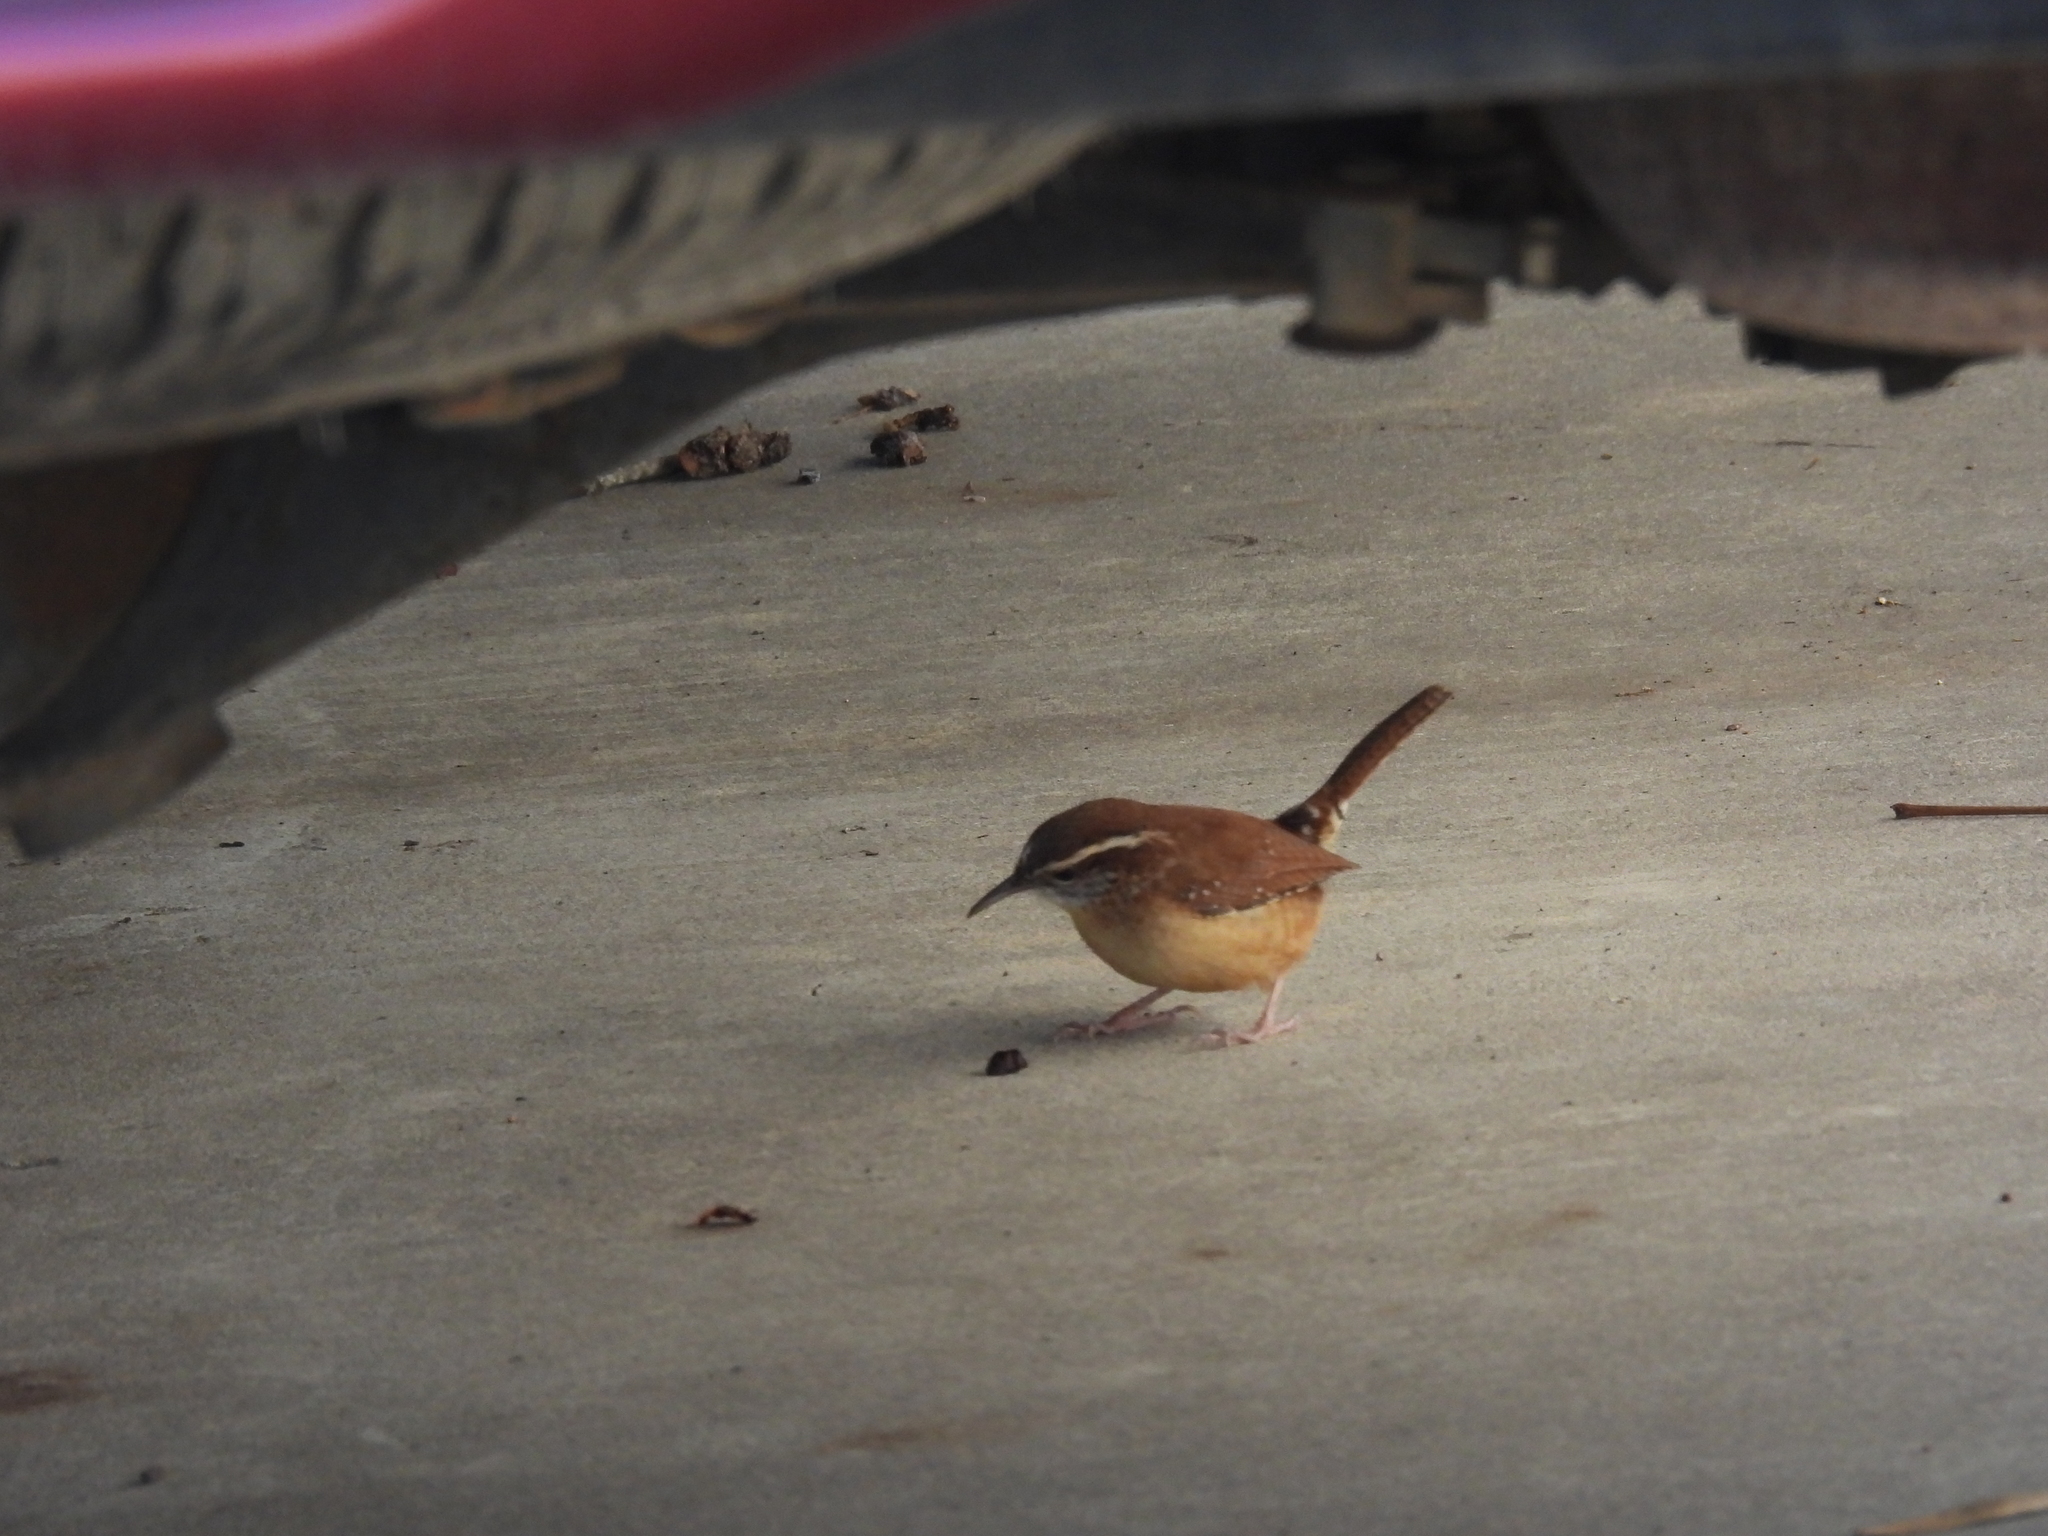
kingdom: Animalia
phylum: Chordata
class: Aves
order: Passeriformes
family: Troglodytidae
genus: Thryothorus
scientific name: Thryothorus ludovicianus
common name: Carolina wren
